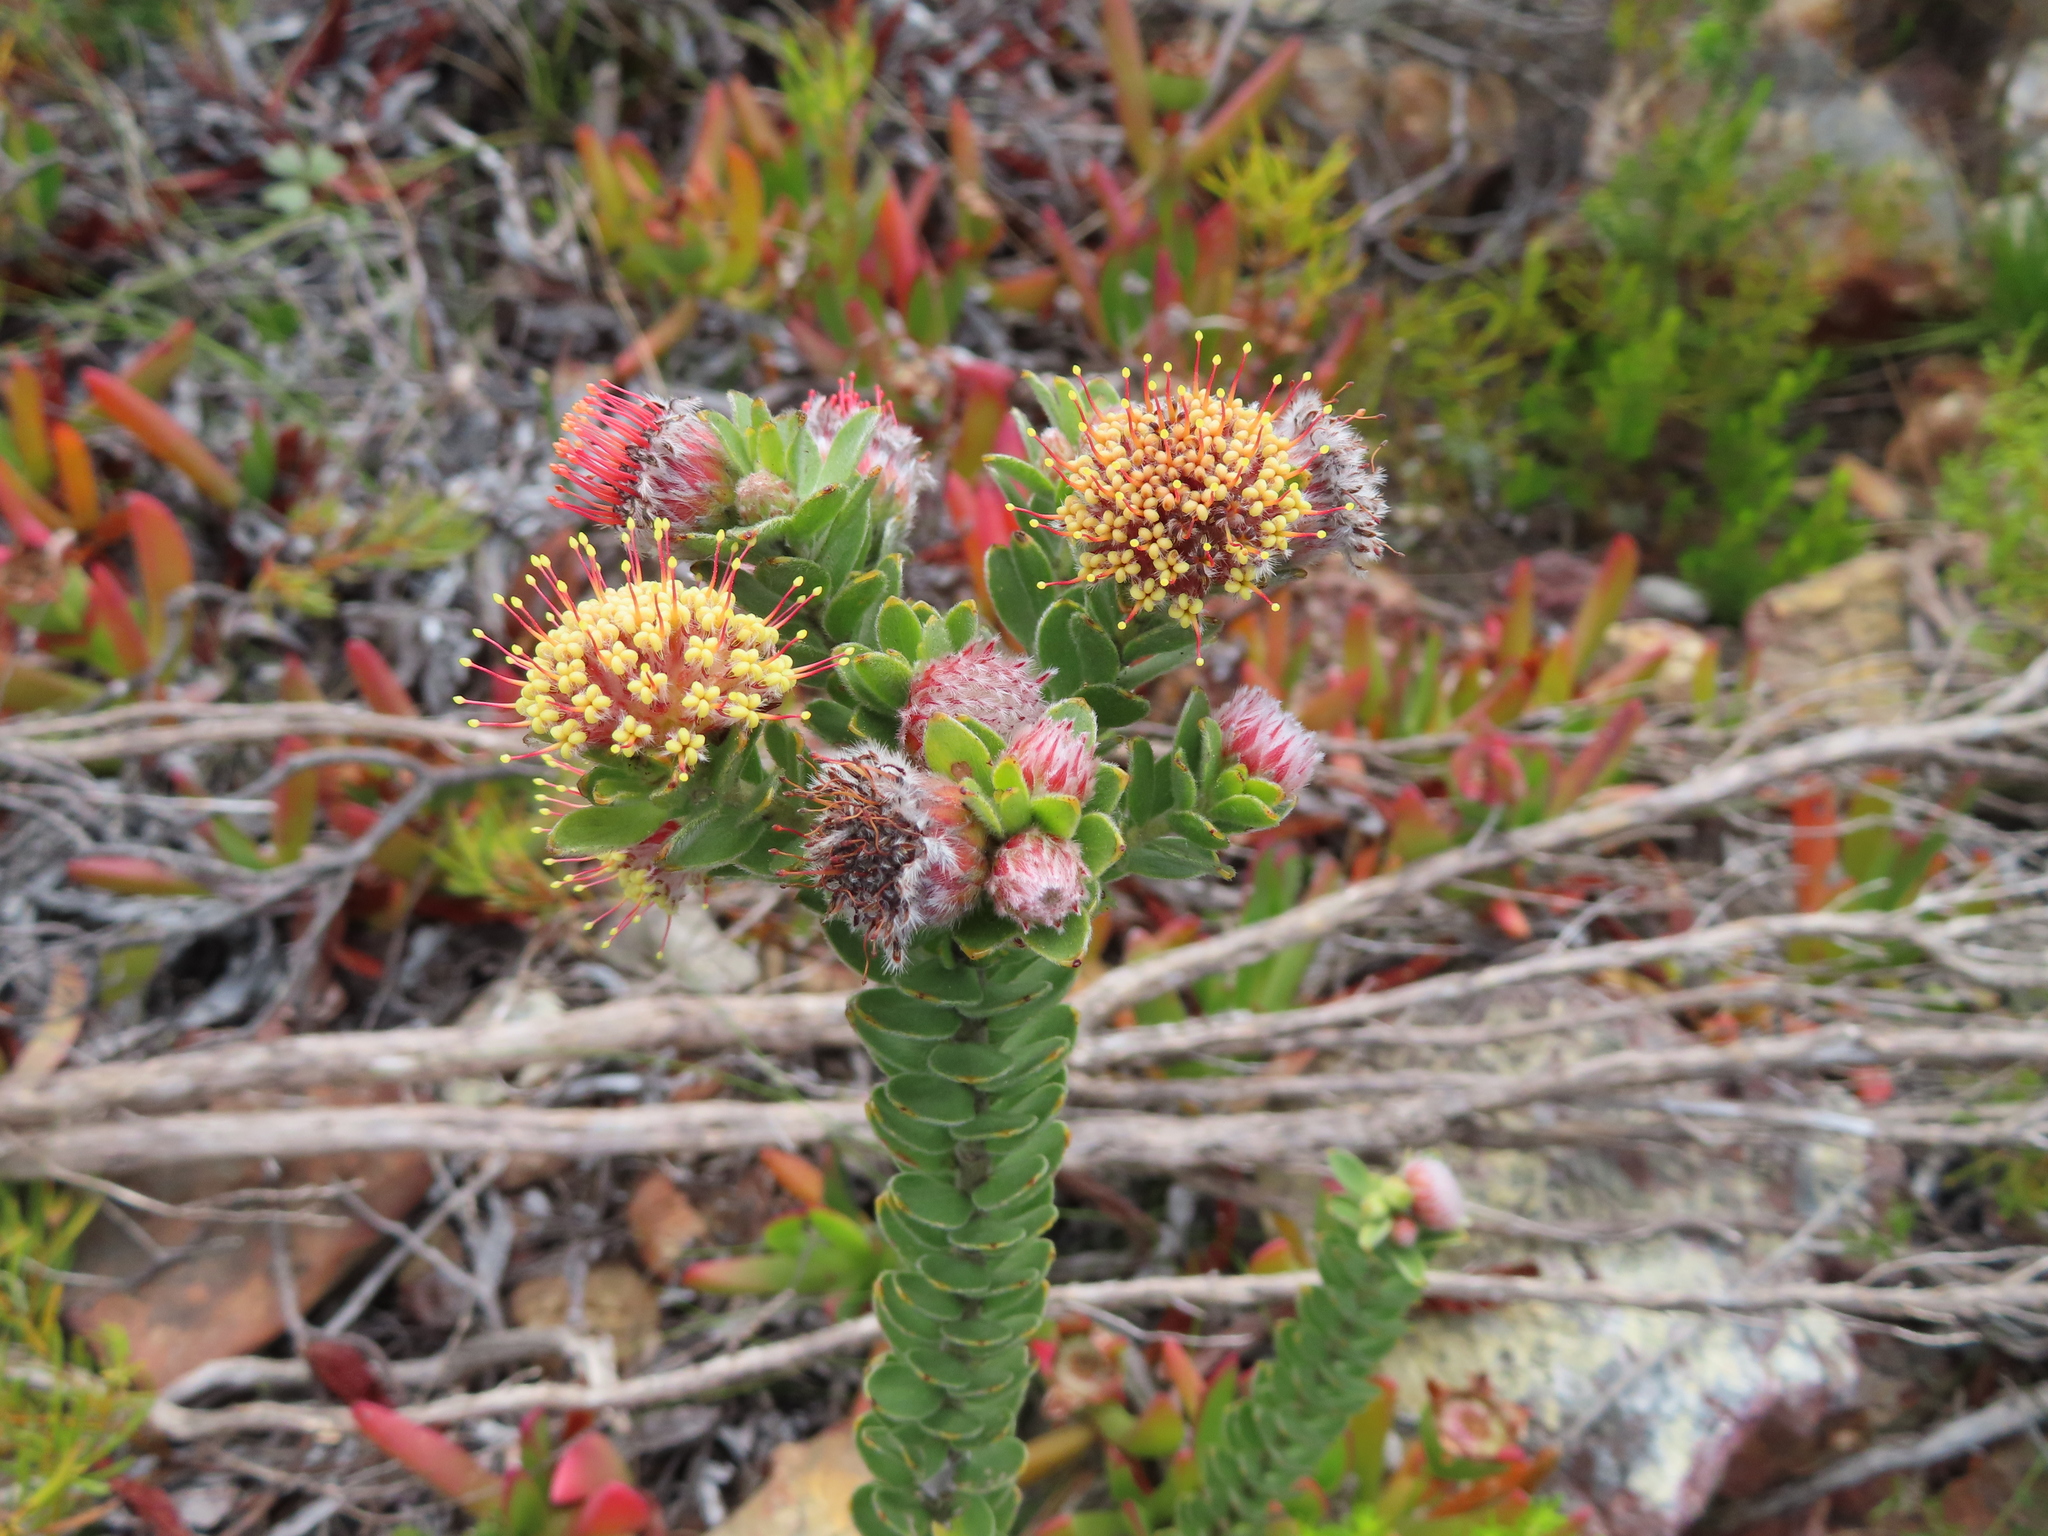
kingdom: Plantae
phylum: Tracheophyta
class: Magnoliopsida
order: Proteales
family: Proteaceae
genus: Leucospermum
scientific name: Leucospermum truncatulum
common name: Oval-leaf pincushion
